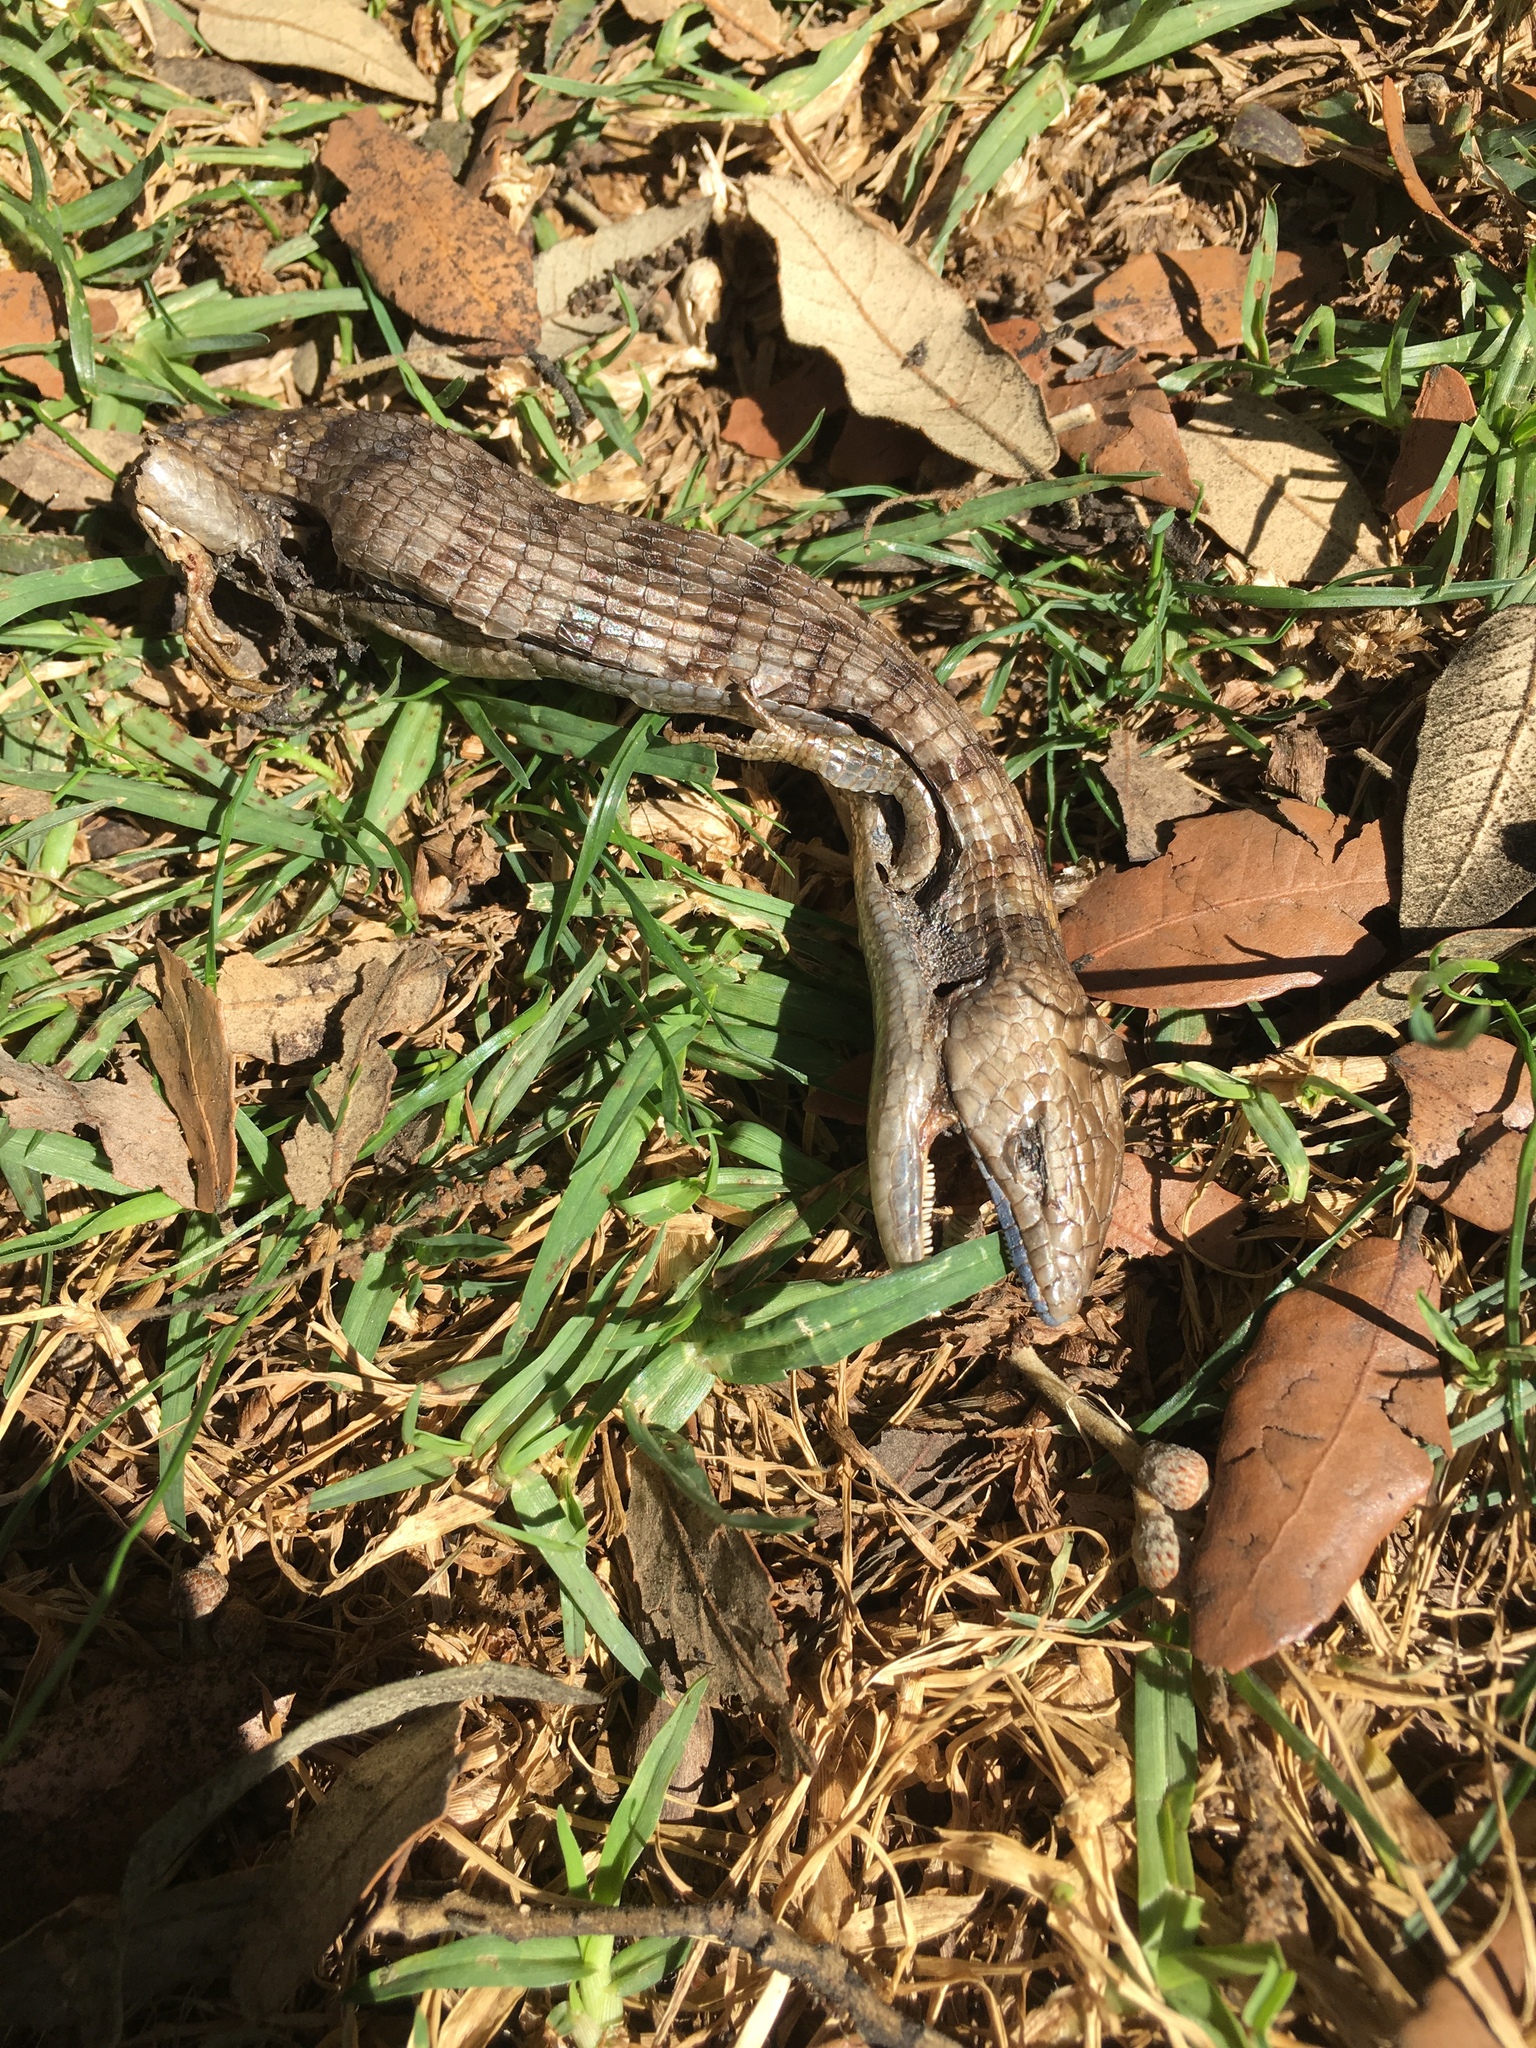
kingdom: Animalia
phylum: Chordata
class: Squamata
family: Anguidae
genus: Elgaria
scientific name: Elgaria multicarinata
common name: Southern alligator lizard
